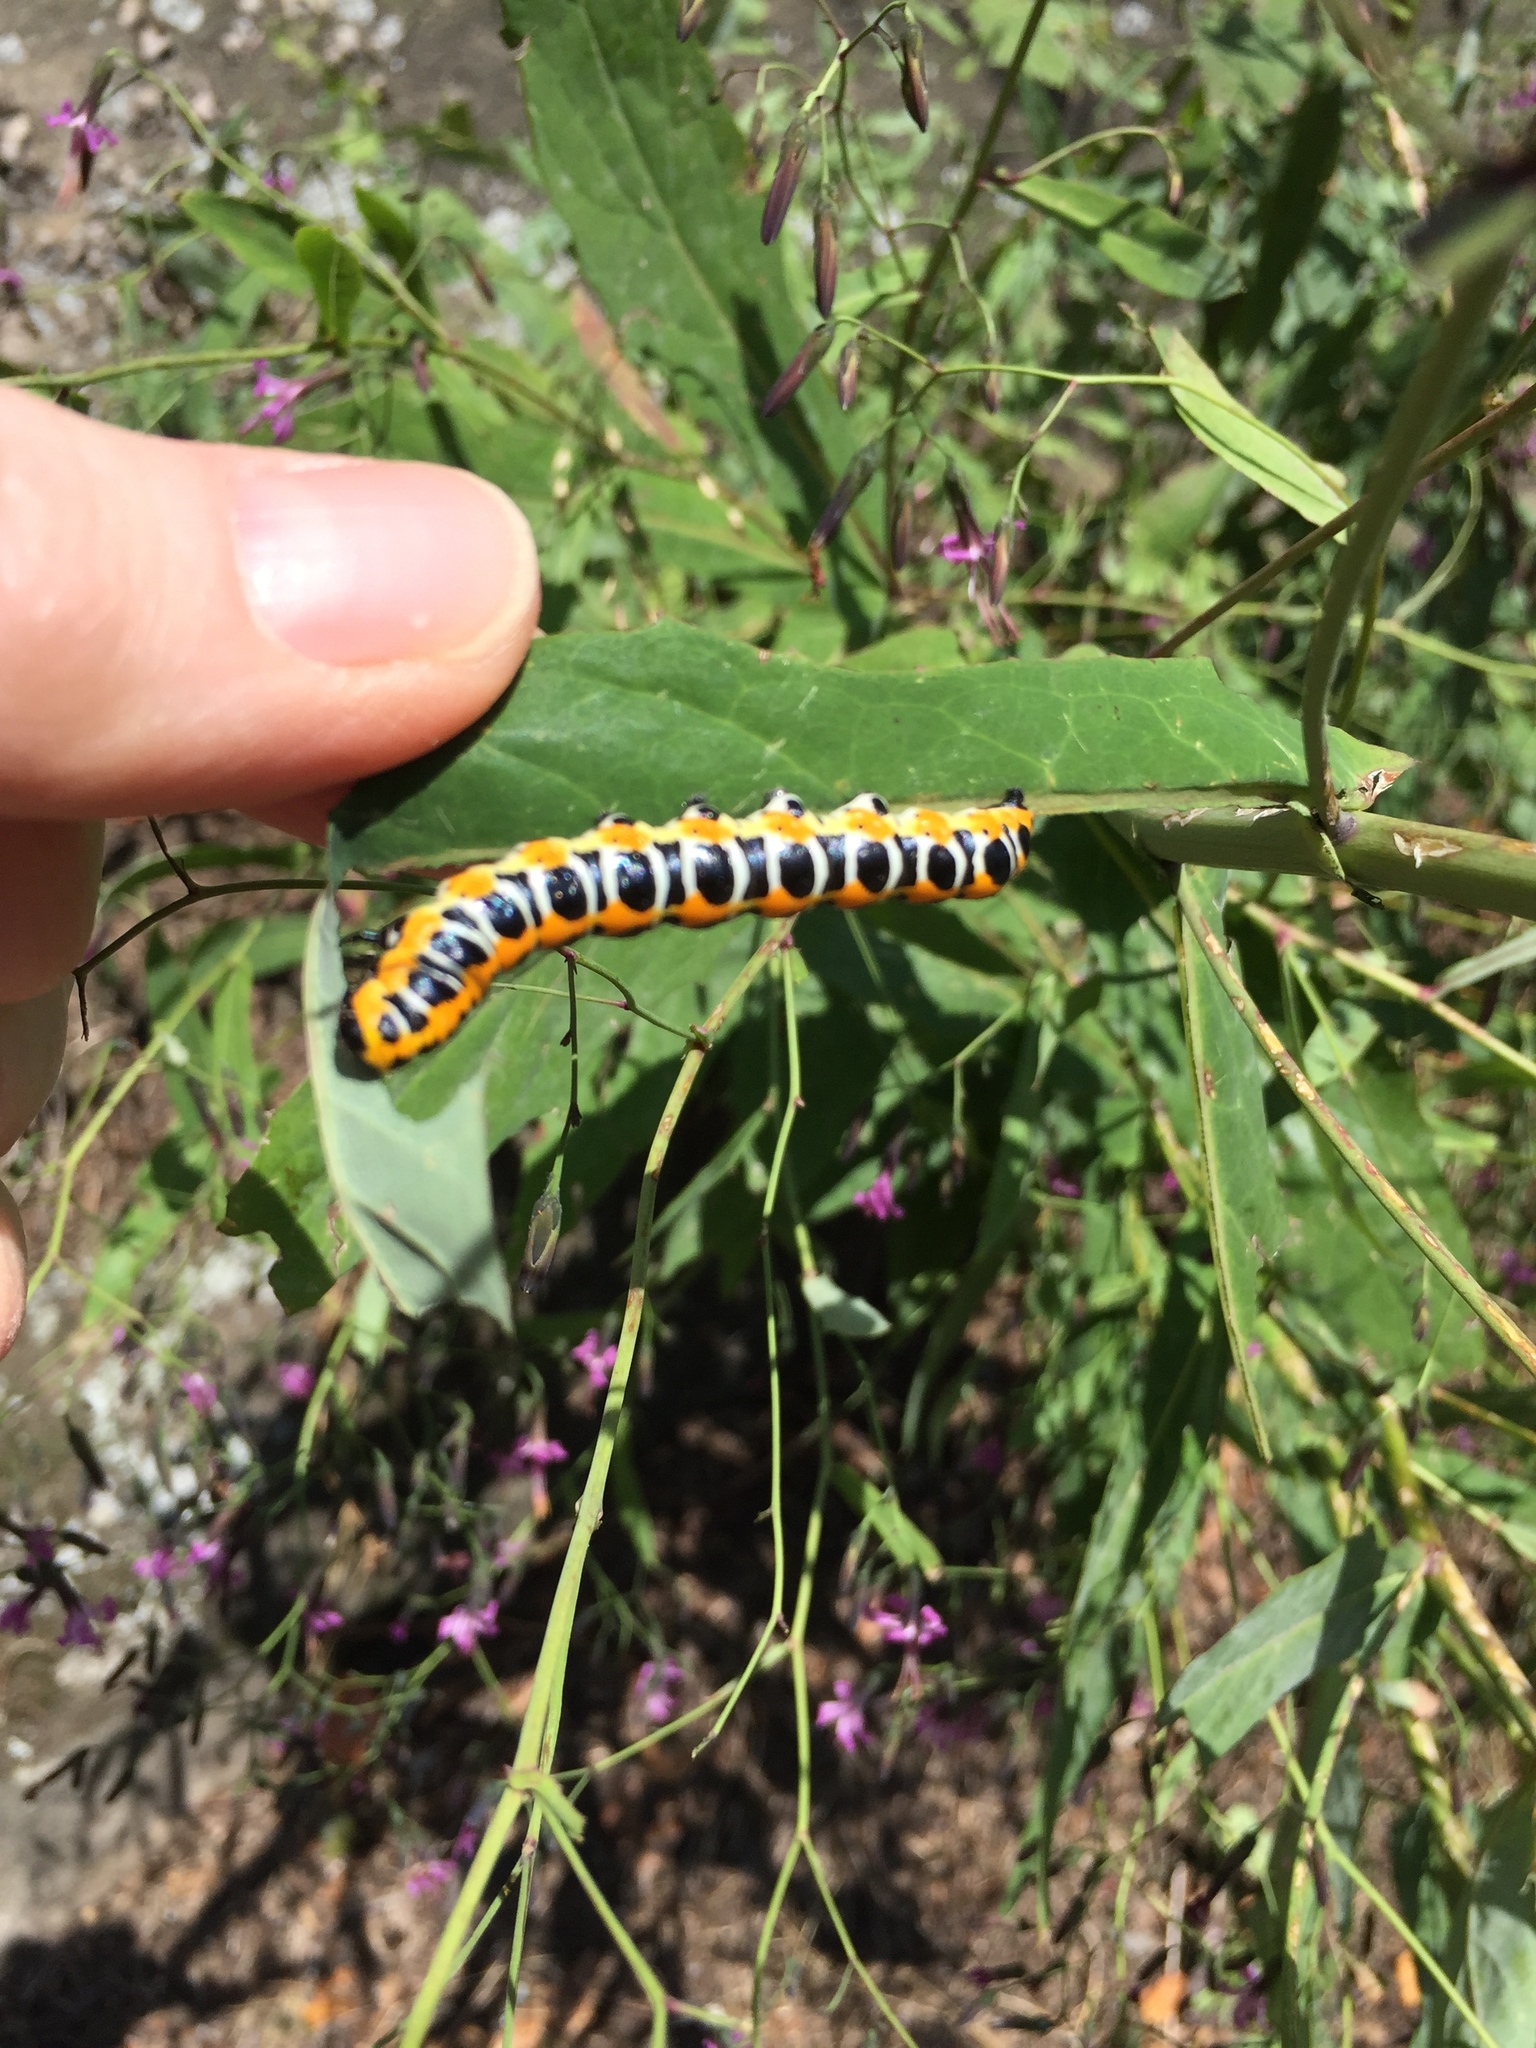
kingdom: Animalia
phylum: Arthropoda
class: Insecta
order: Lepidoptera
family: Noctuidae
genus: Cucullia
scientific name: Cucullia lactucae
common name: Lettuce shark
